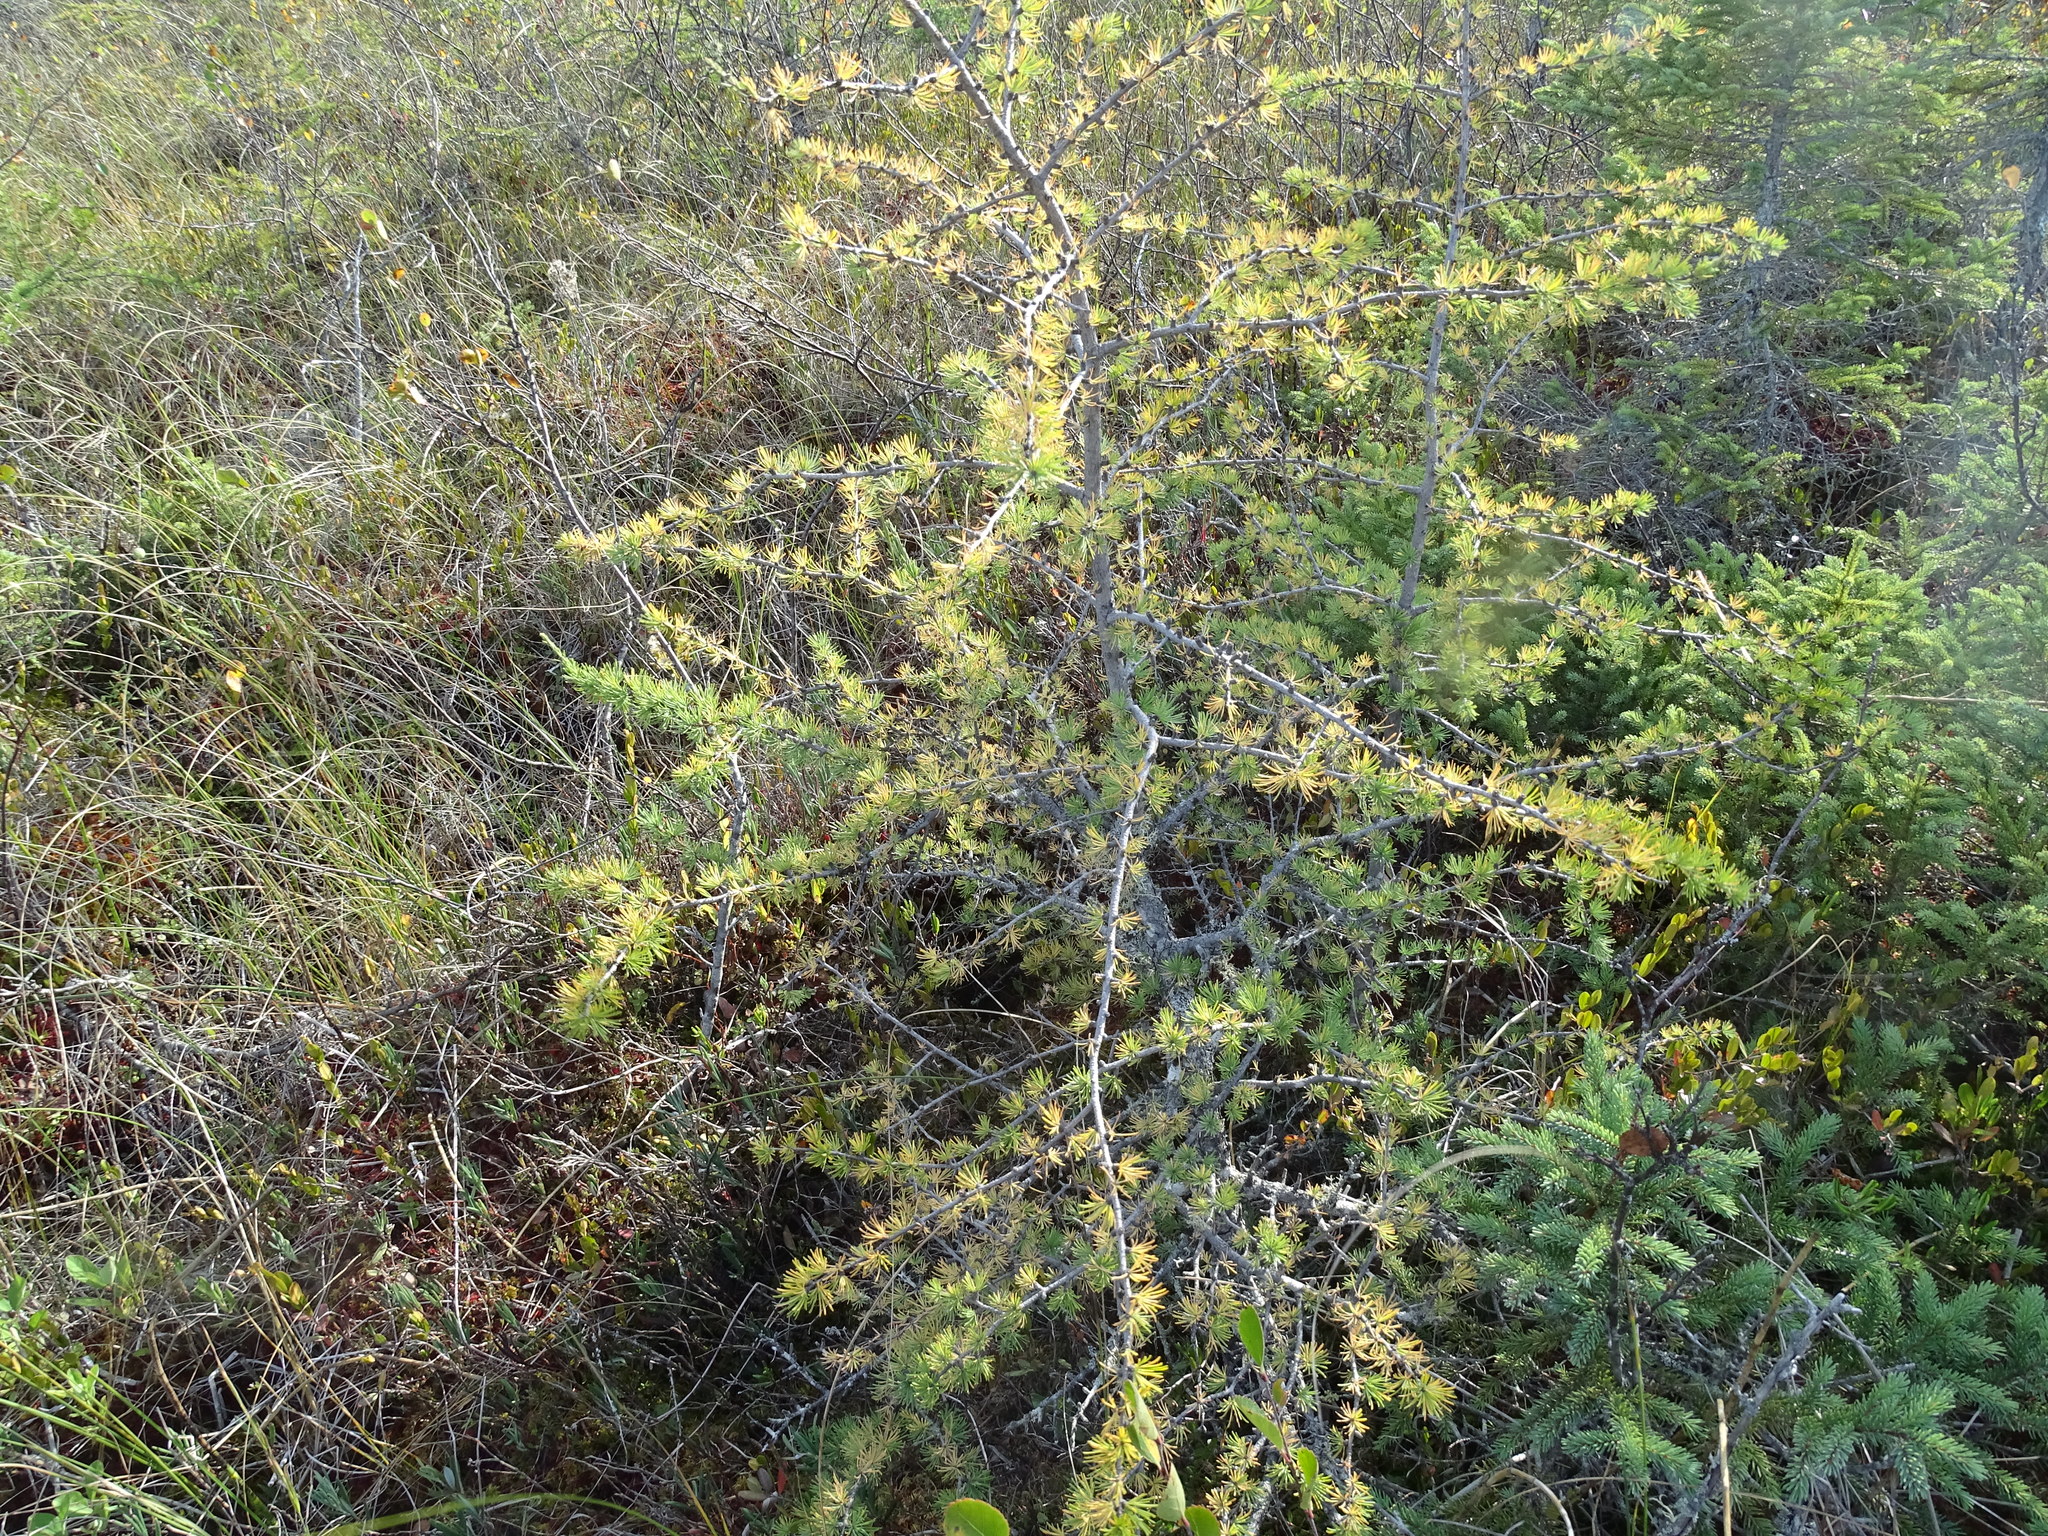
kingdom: Plantae
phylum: Tracheophyta
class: Pinopsida
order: Pinales
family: Pinaceae
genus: Larix
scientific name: Larix laricina
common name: American larch
